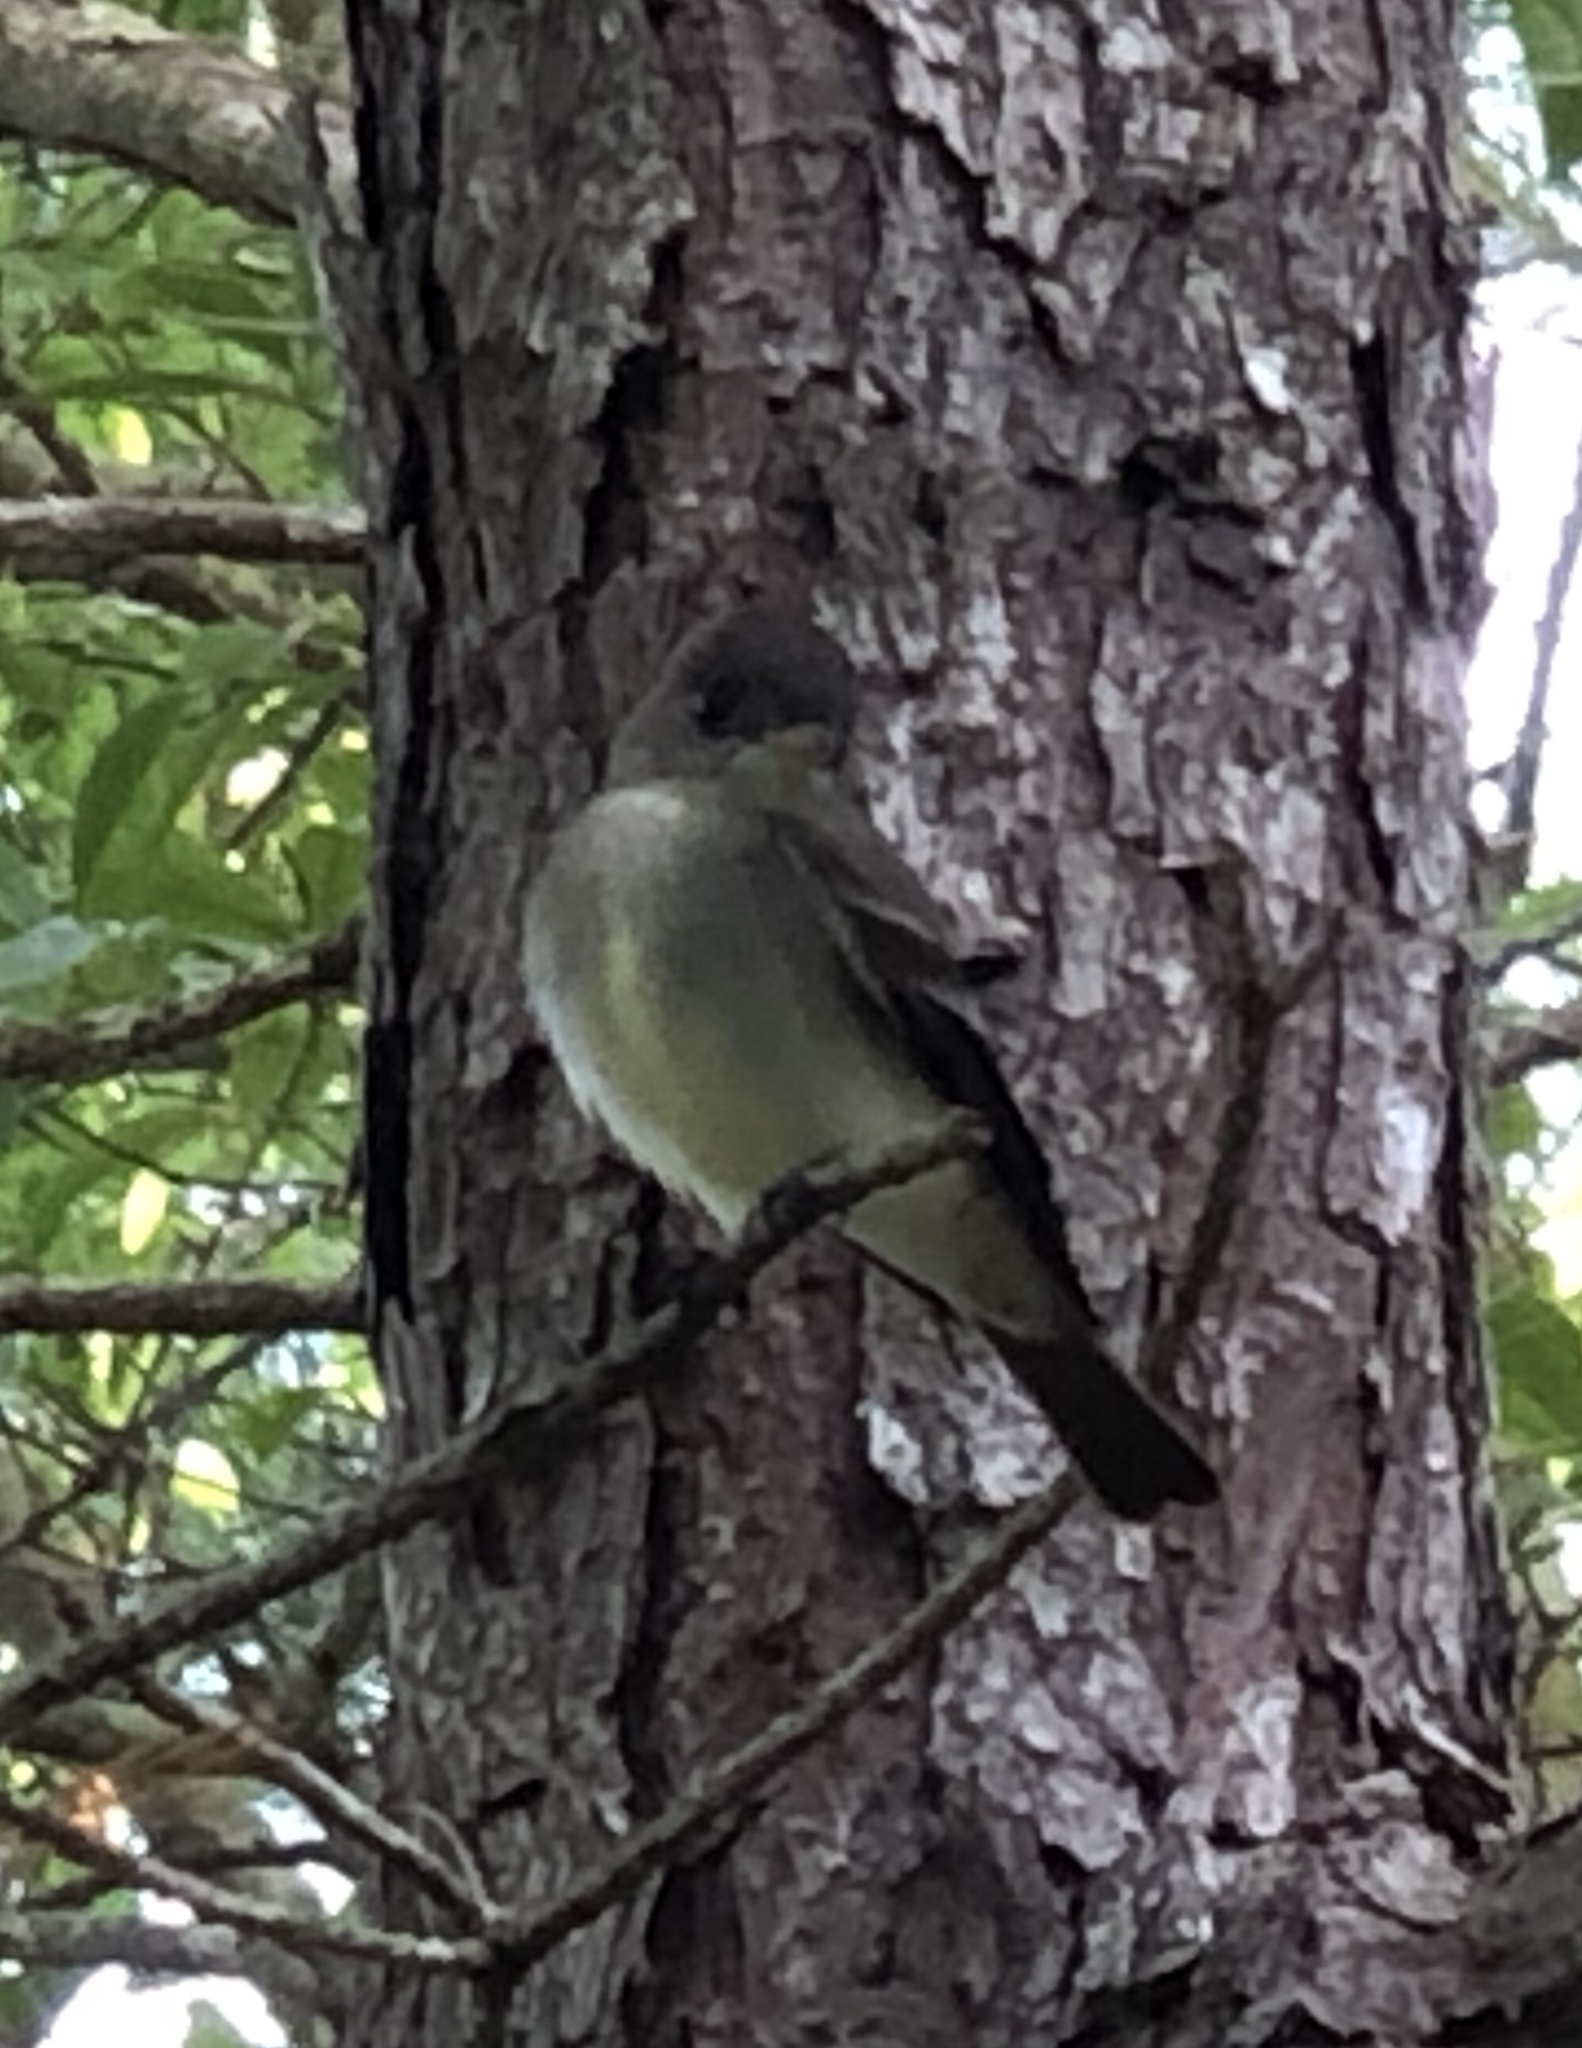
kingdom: Animalia
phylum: Chordata
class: Aves
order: Passeriformes
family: Tyrannidae
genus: Contopus
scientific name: Contopus virens
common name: Eastern wood-pewee
